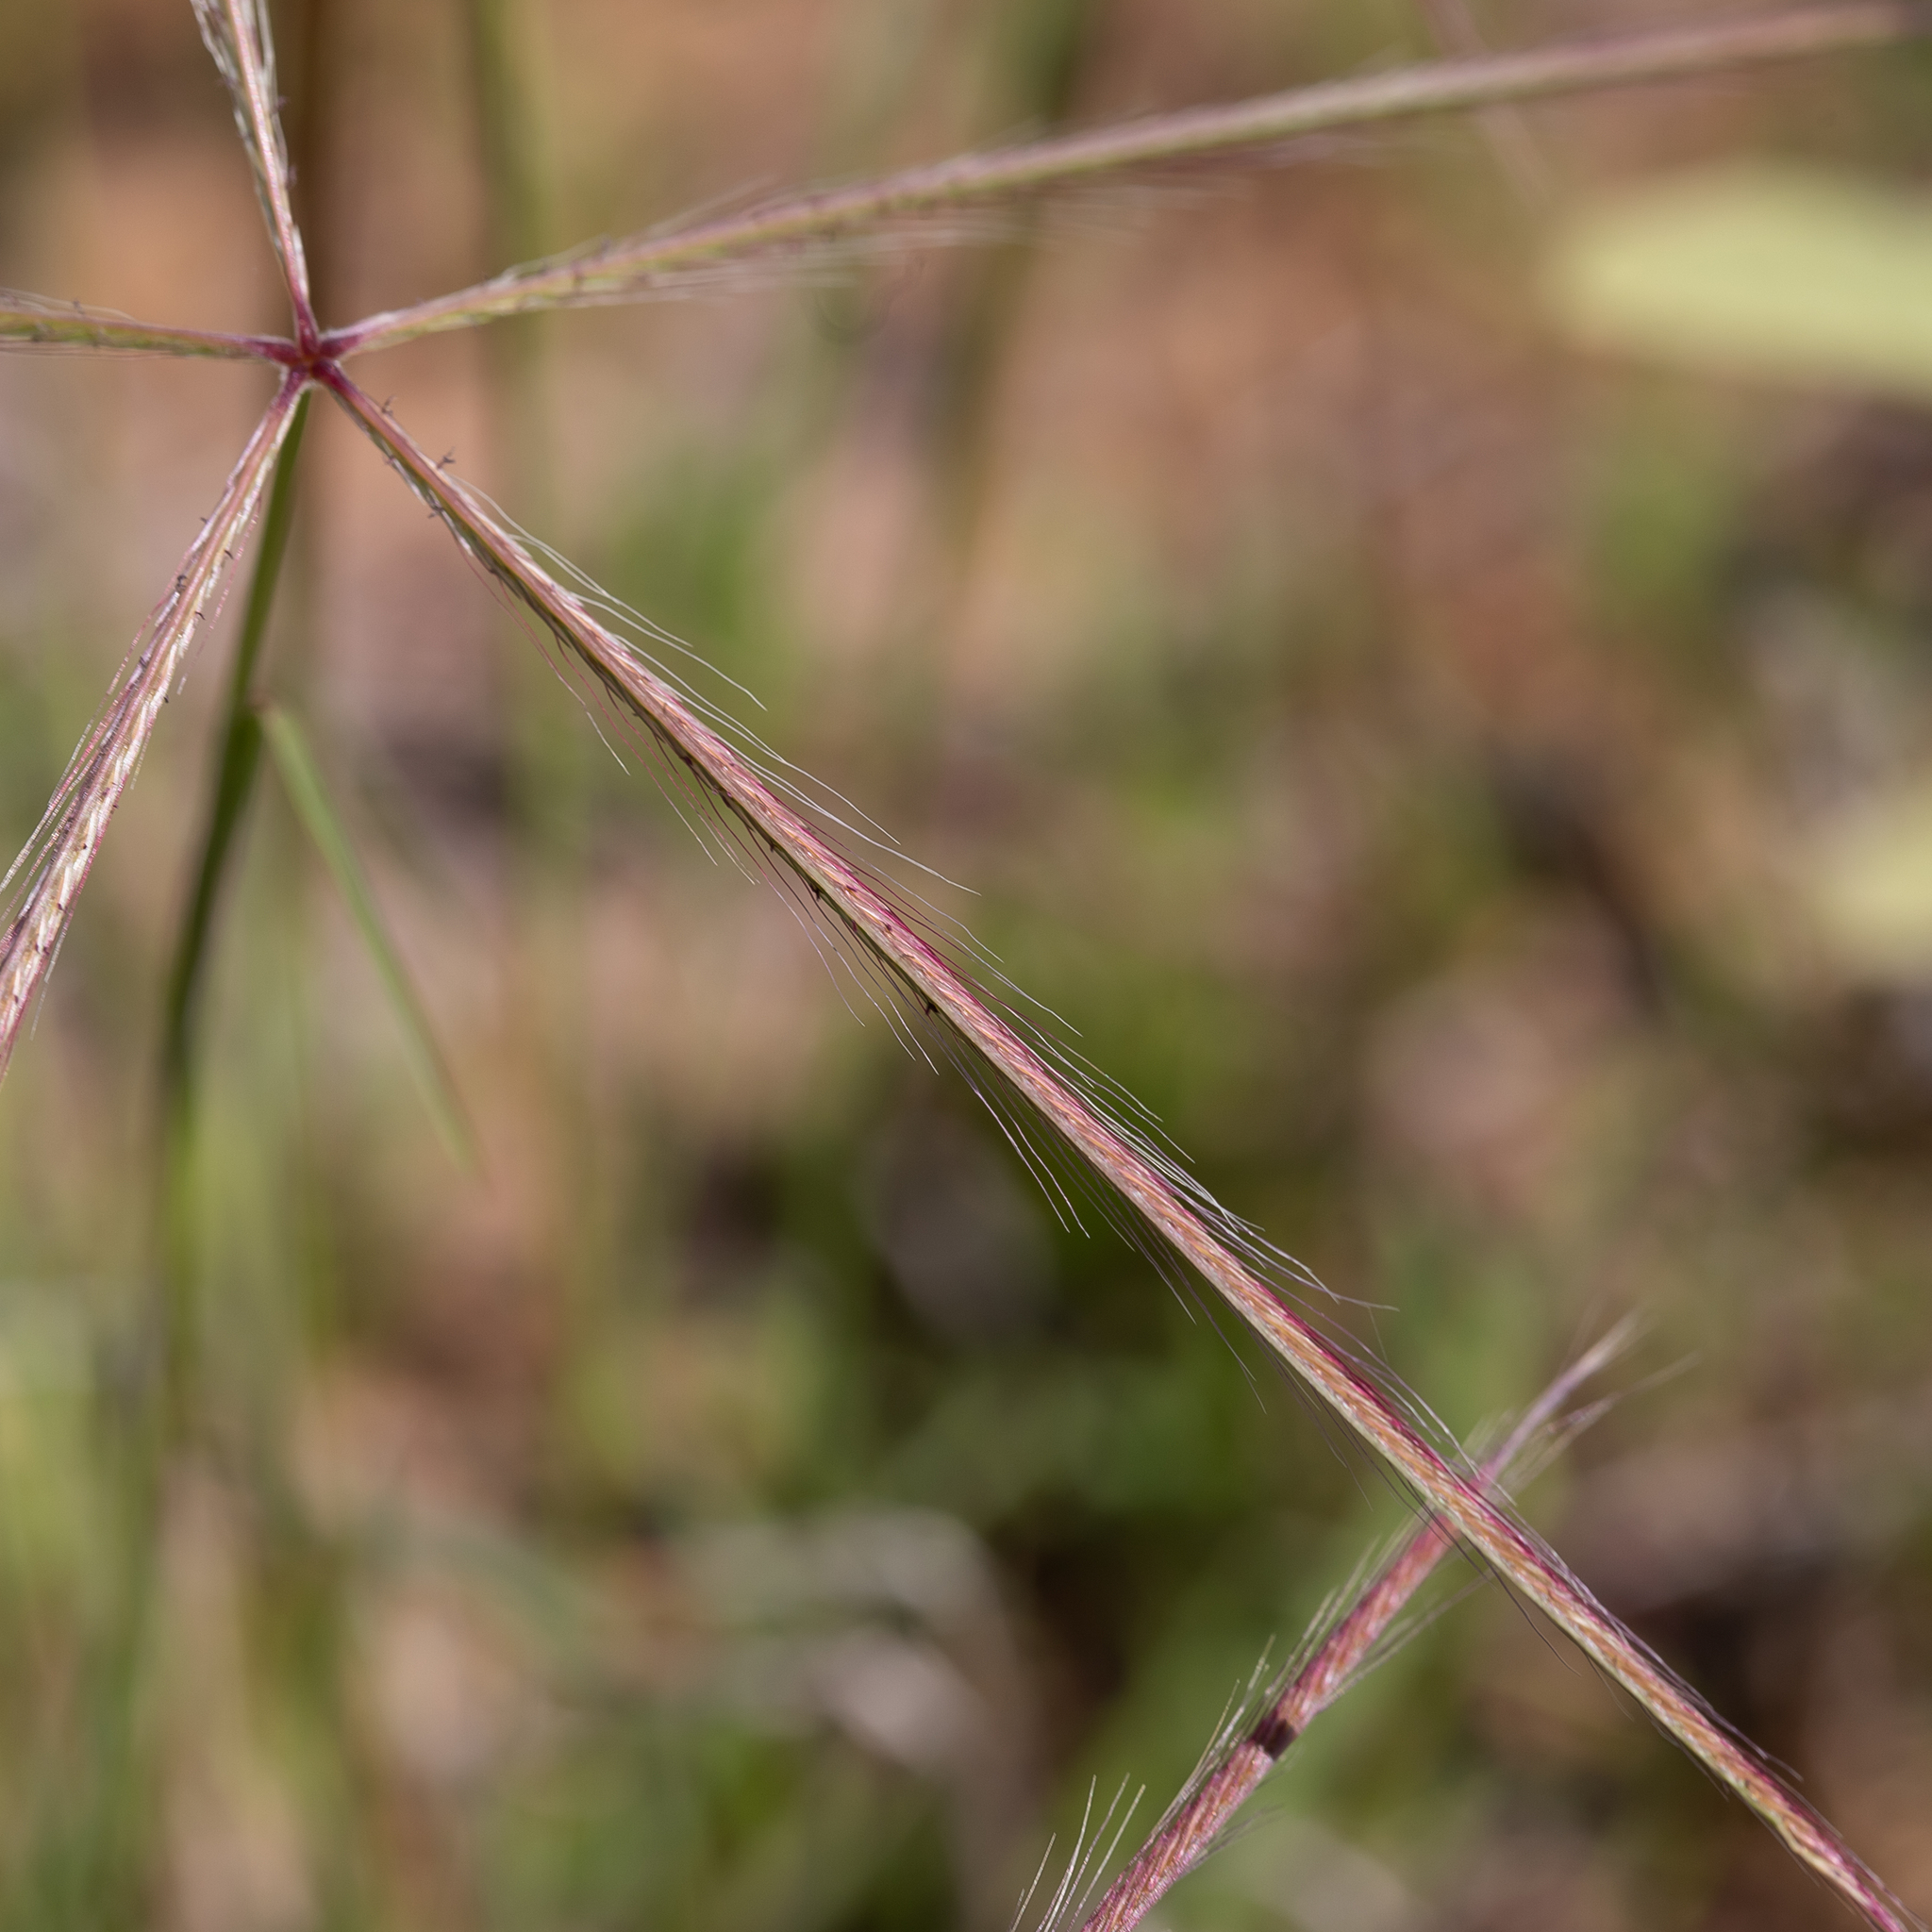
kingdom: Plantae
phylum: Tracheophyta
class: Liliopsida
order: Poales
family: Poaceae
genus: Chloris
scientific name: Chloris pectinata
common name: Comb windmill grass
